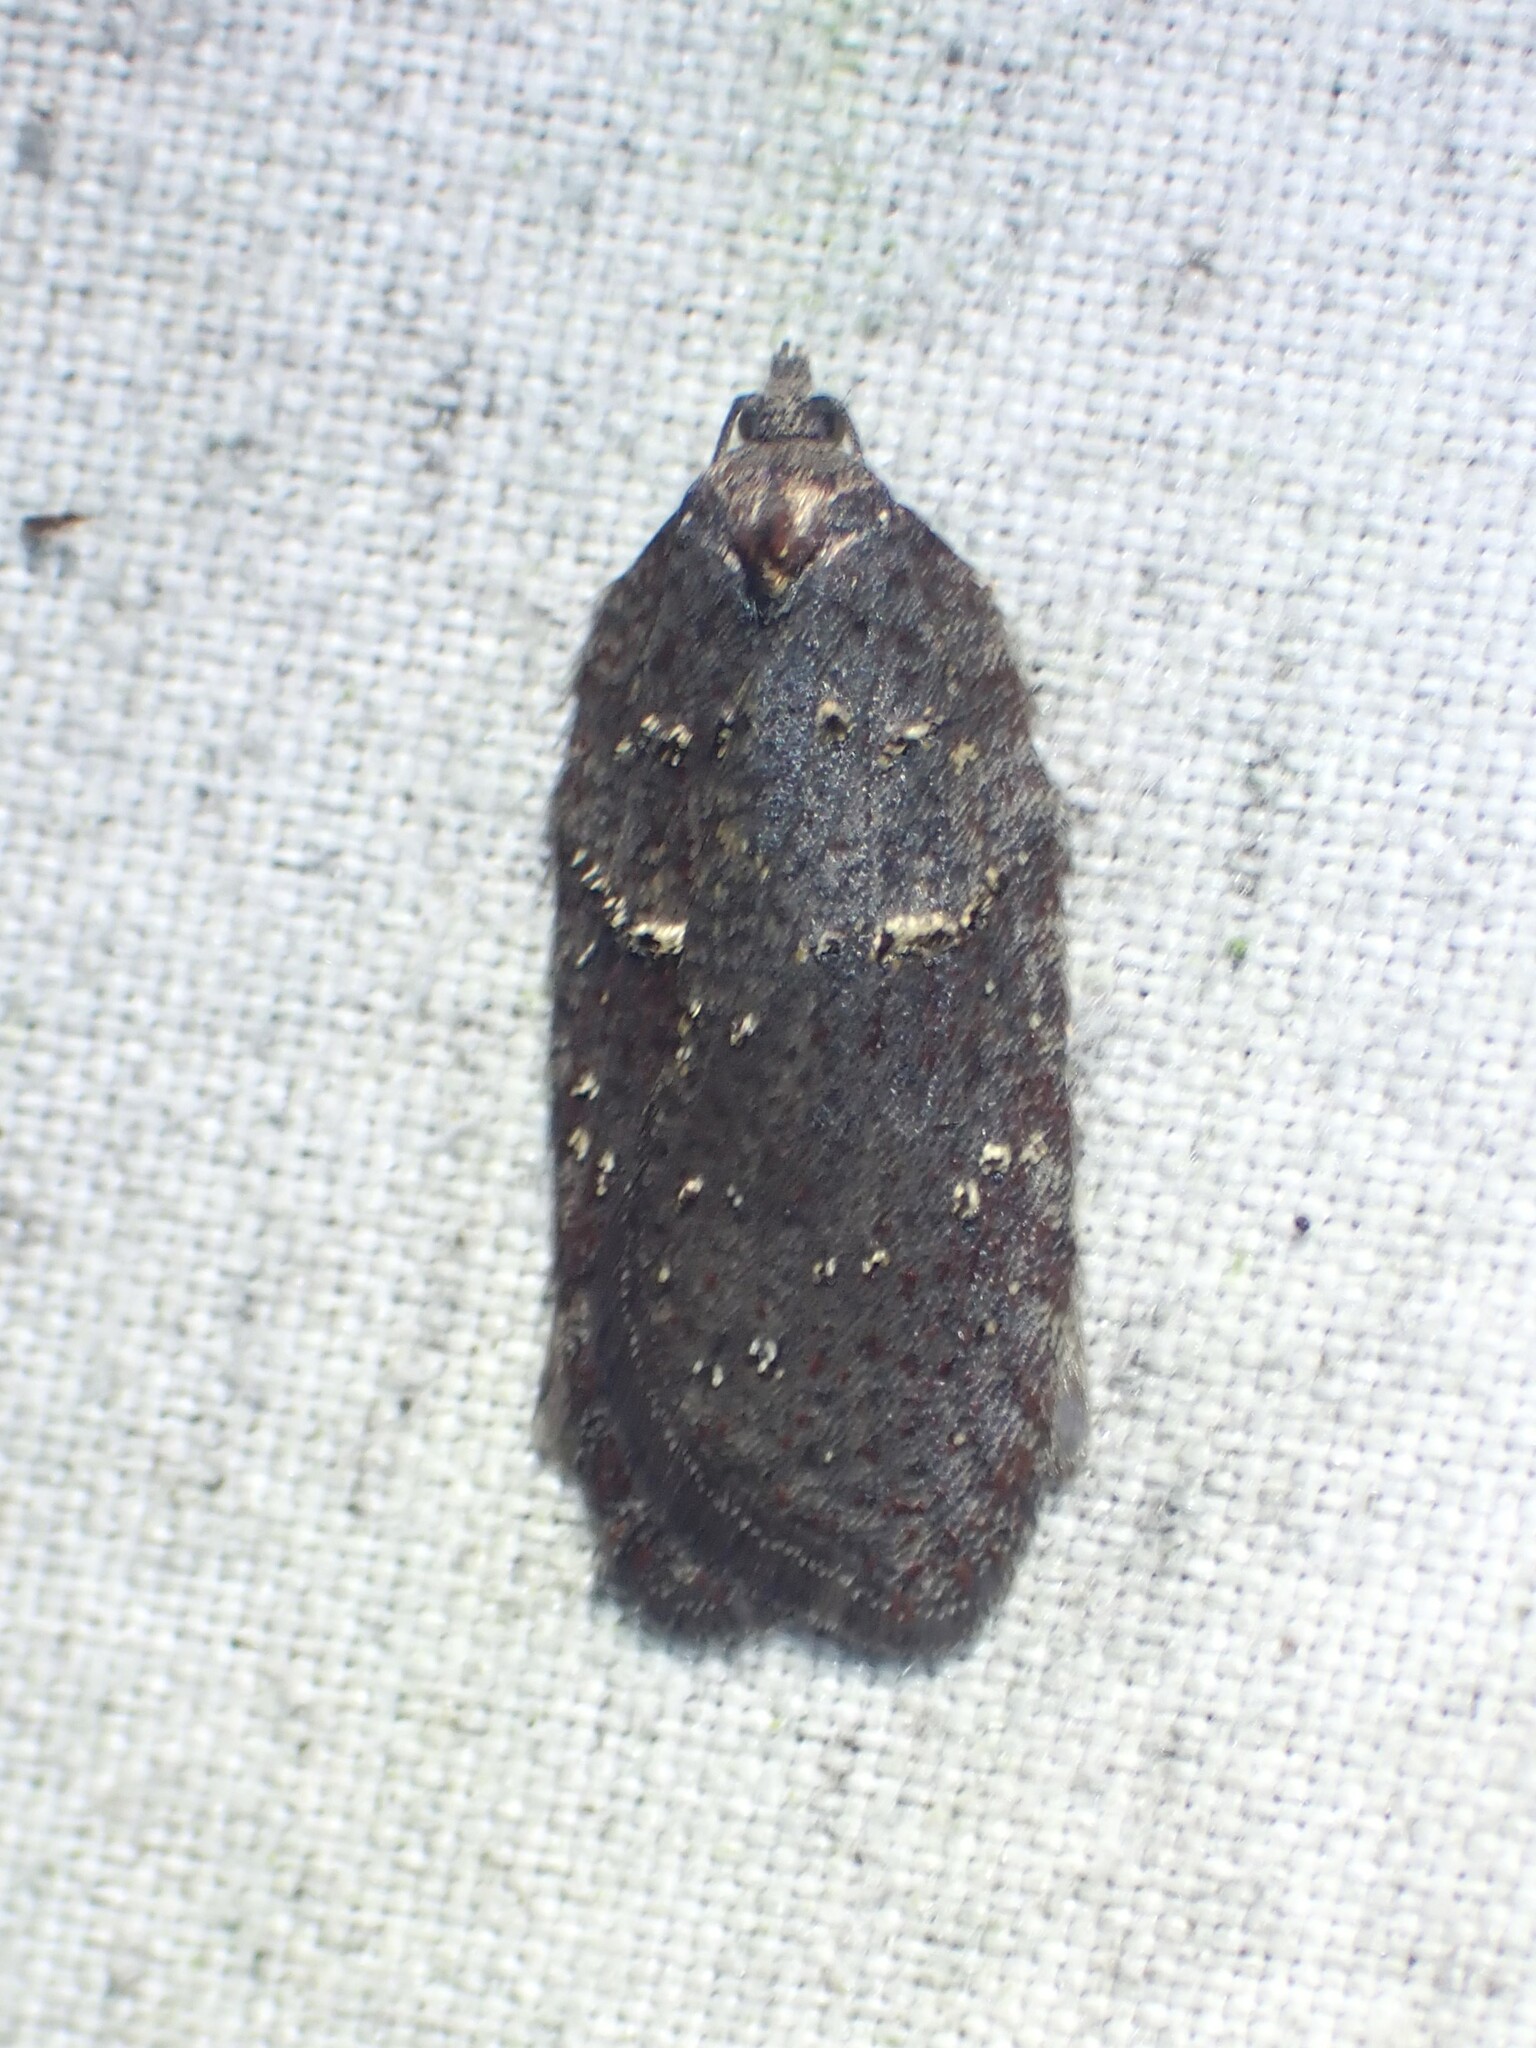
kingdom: Animalia
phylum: Arthropoda
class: Insecta
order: Lepidoptera
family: Tortricidae
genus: Acleris
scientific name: Acleris caliginosana
